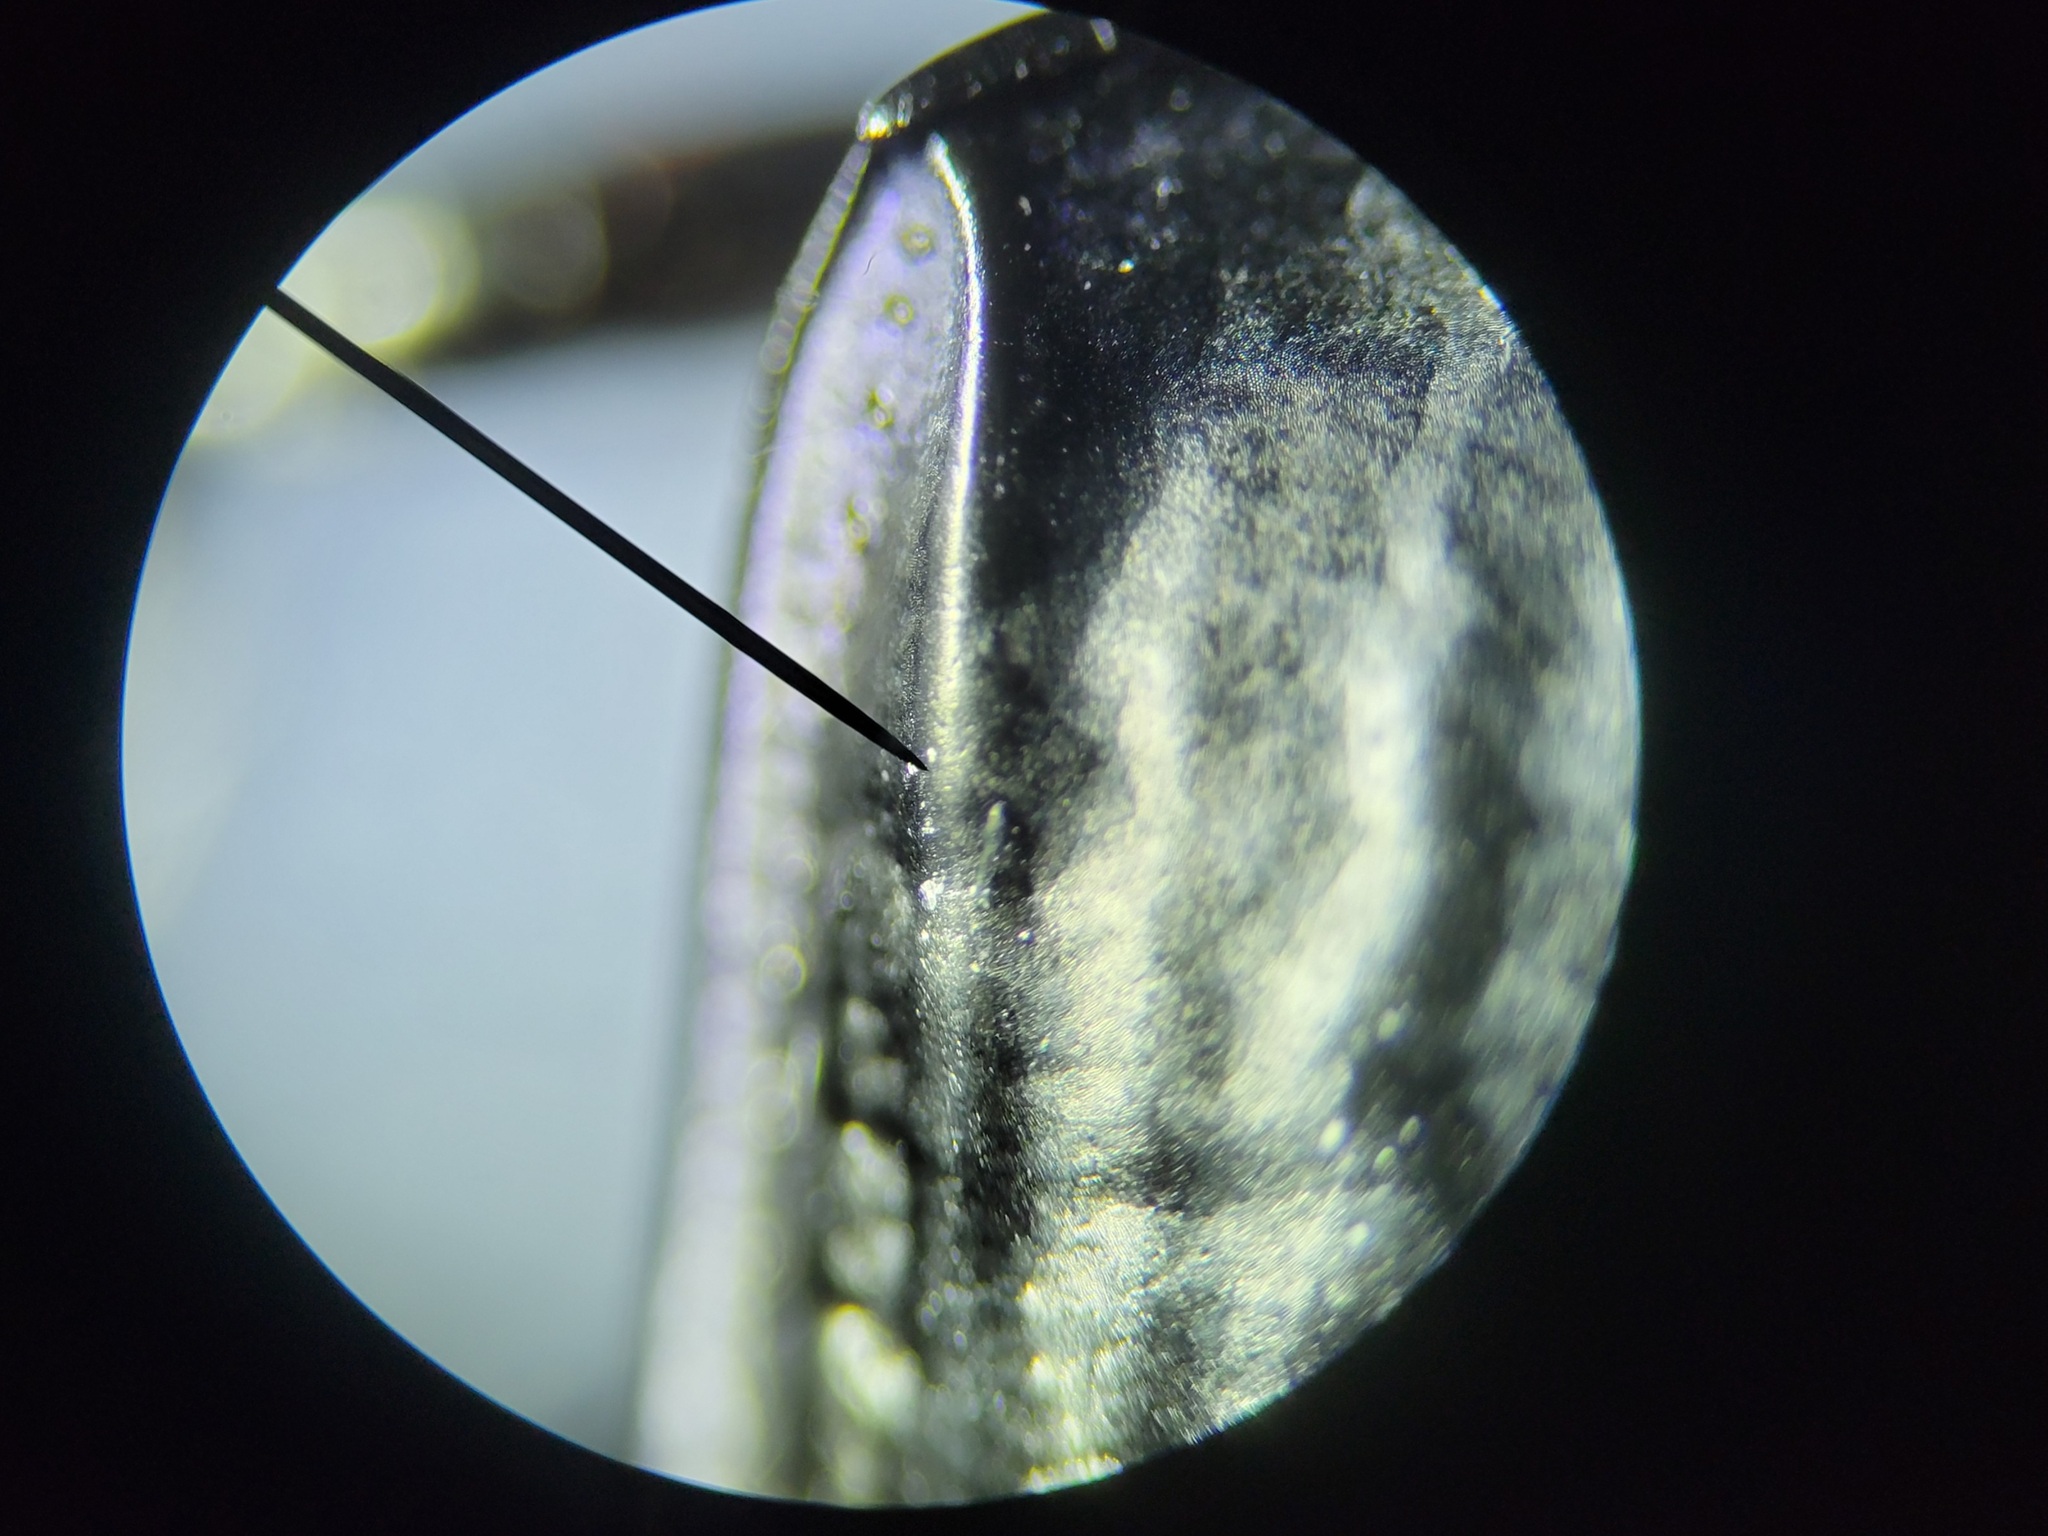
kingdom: Animalia
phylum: Arthropoda
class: Insecta
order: Coleoptera
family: Carabidae
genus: Pasimachus
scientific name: Pasimachus sublaevis
